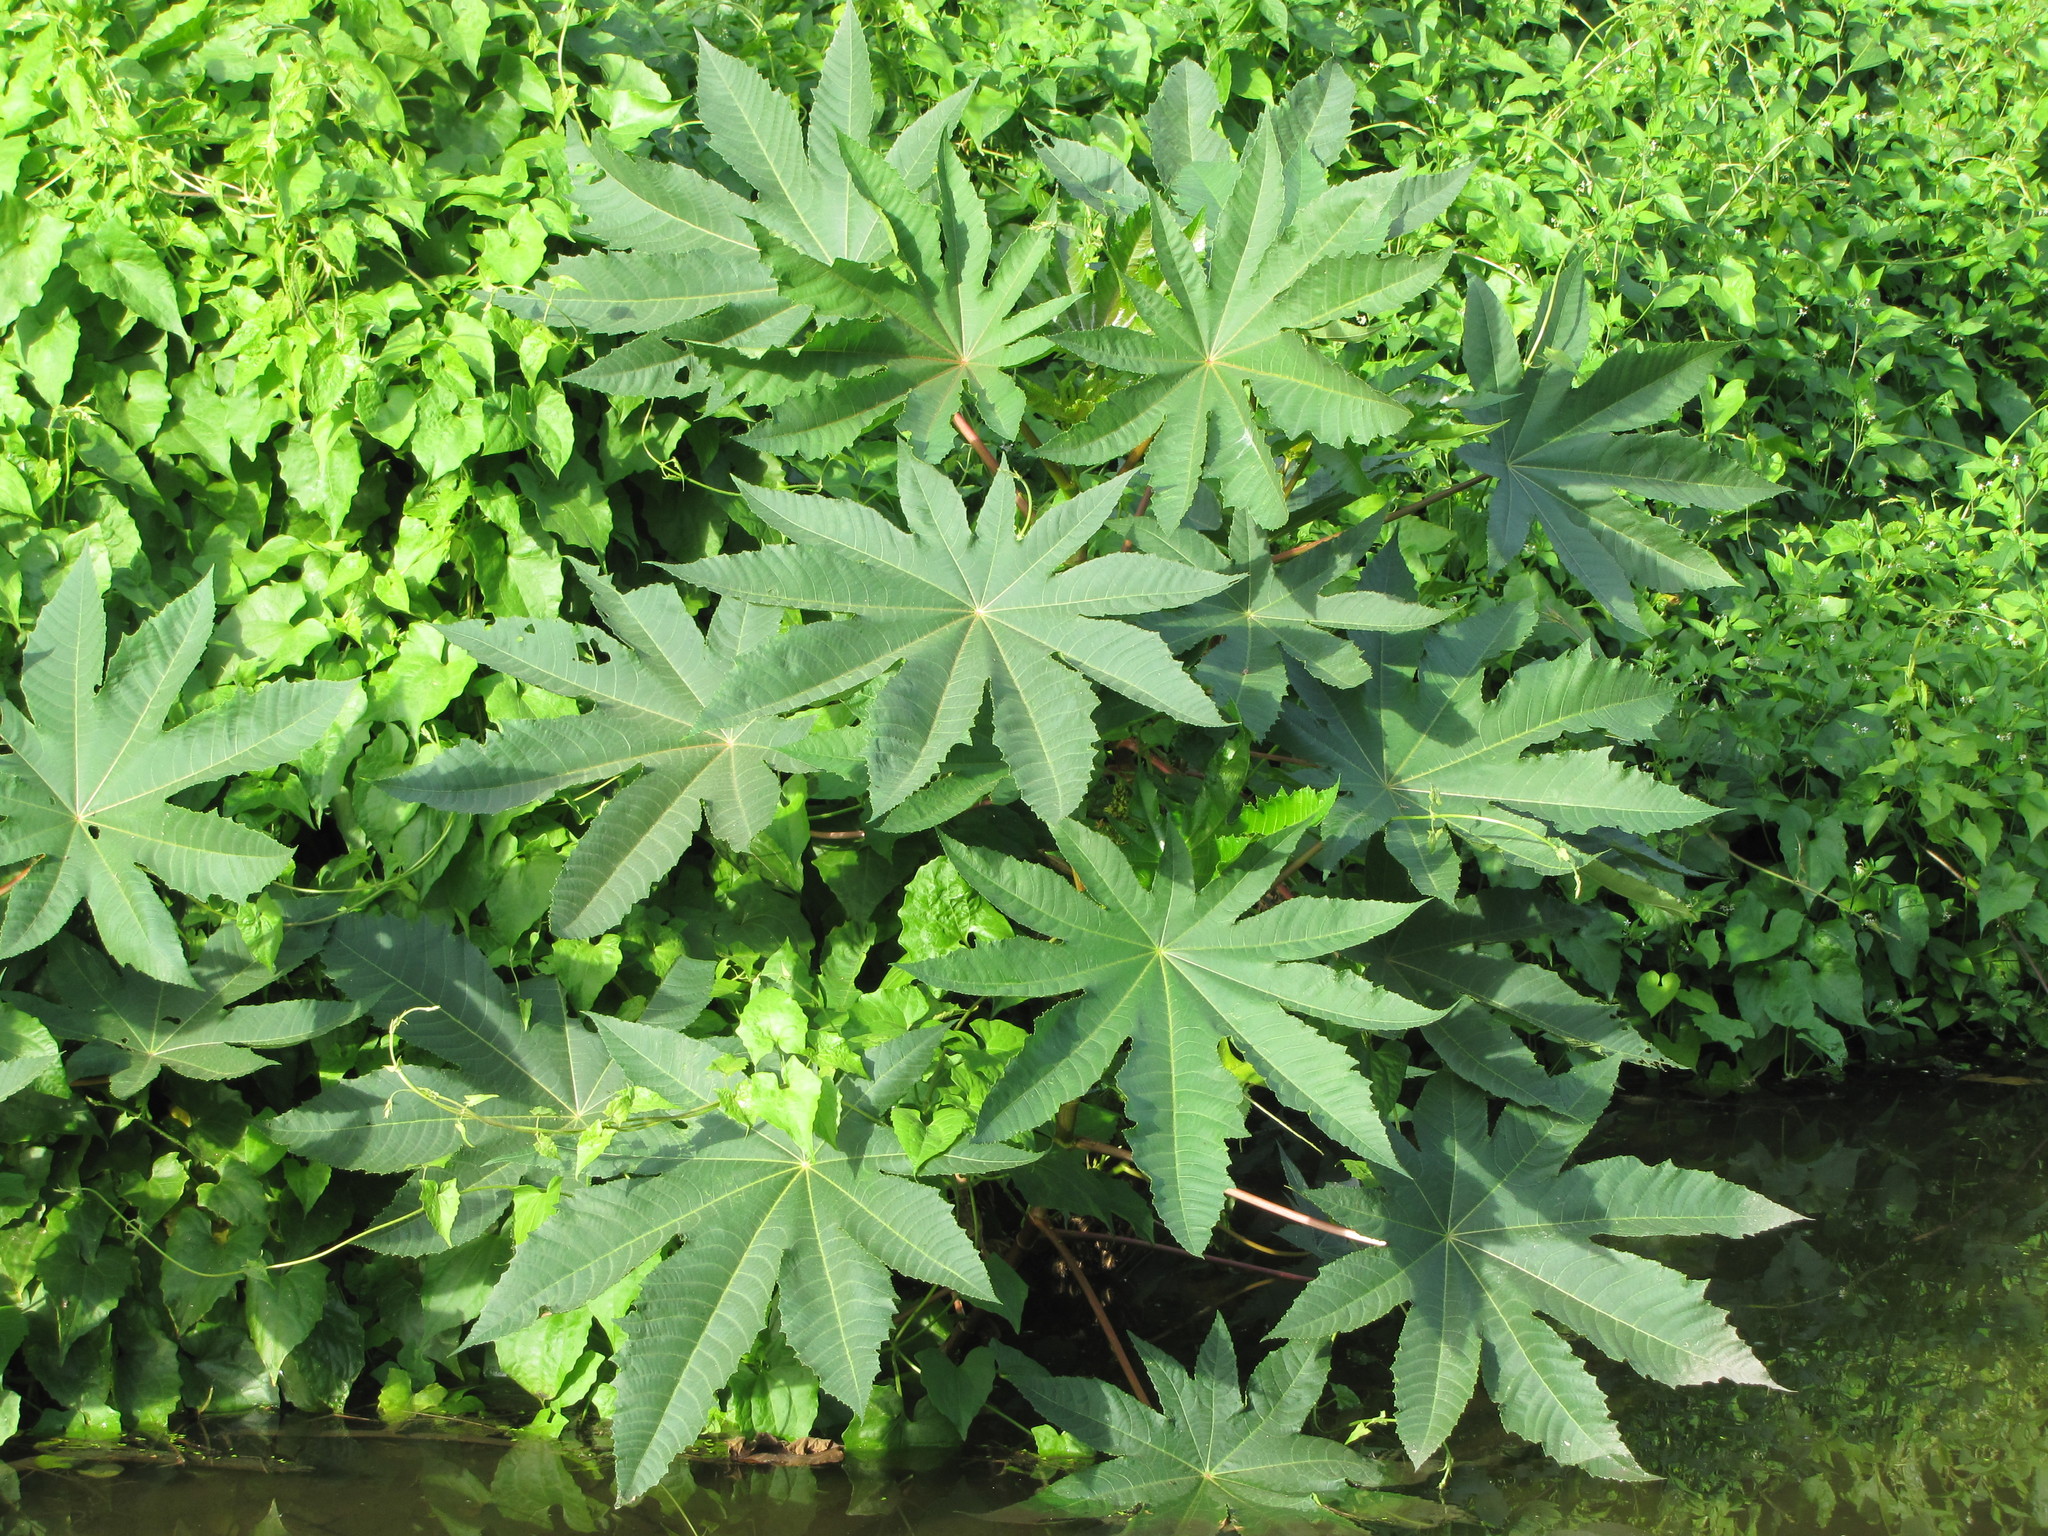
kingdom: Plantae
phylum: Tracheophyta
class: Magnoliopsida
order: Malpighiales
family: Euphorbiaceae
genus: Ricinus
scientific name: Ricinus communis
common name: Castor-oil-plant
